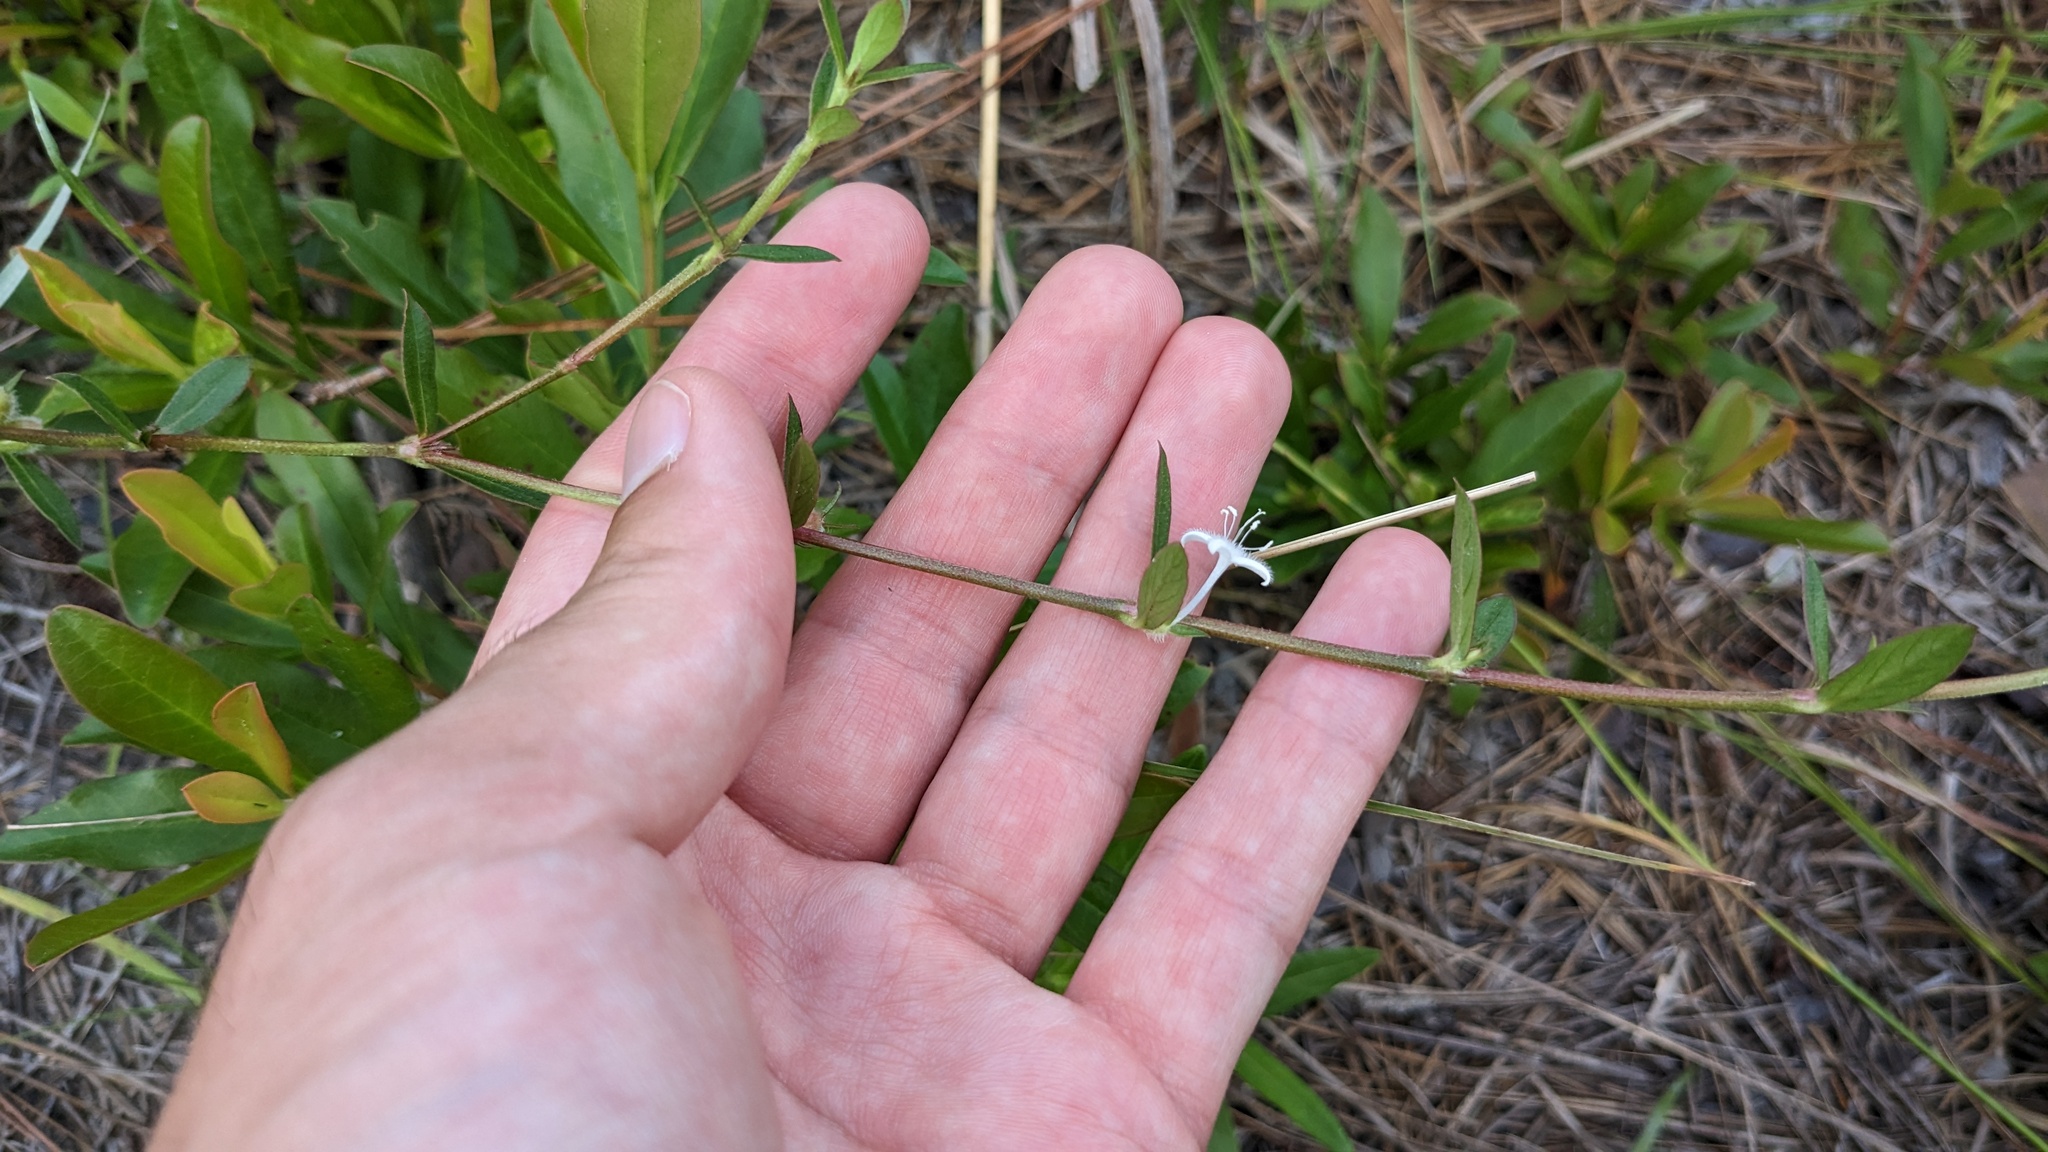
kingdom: Plantae
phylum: Tracheophyta
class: Magnoliopsida
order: Gentianales
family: Rubiaceae
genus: Diodia
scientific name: Diodia virginiana
